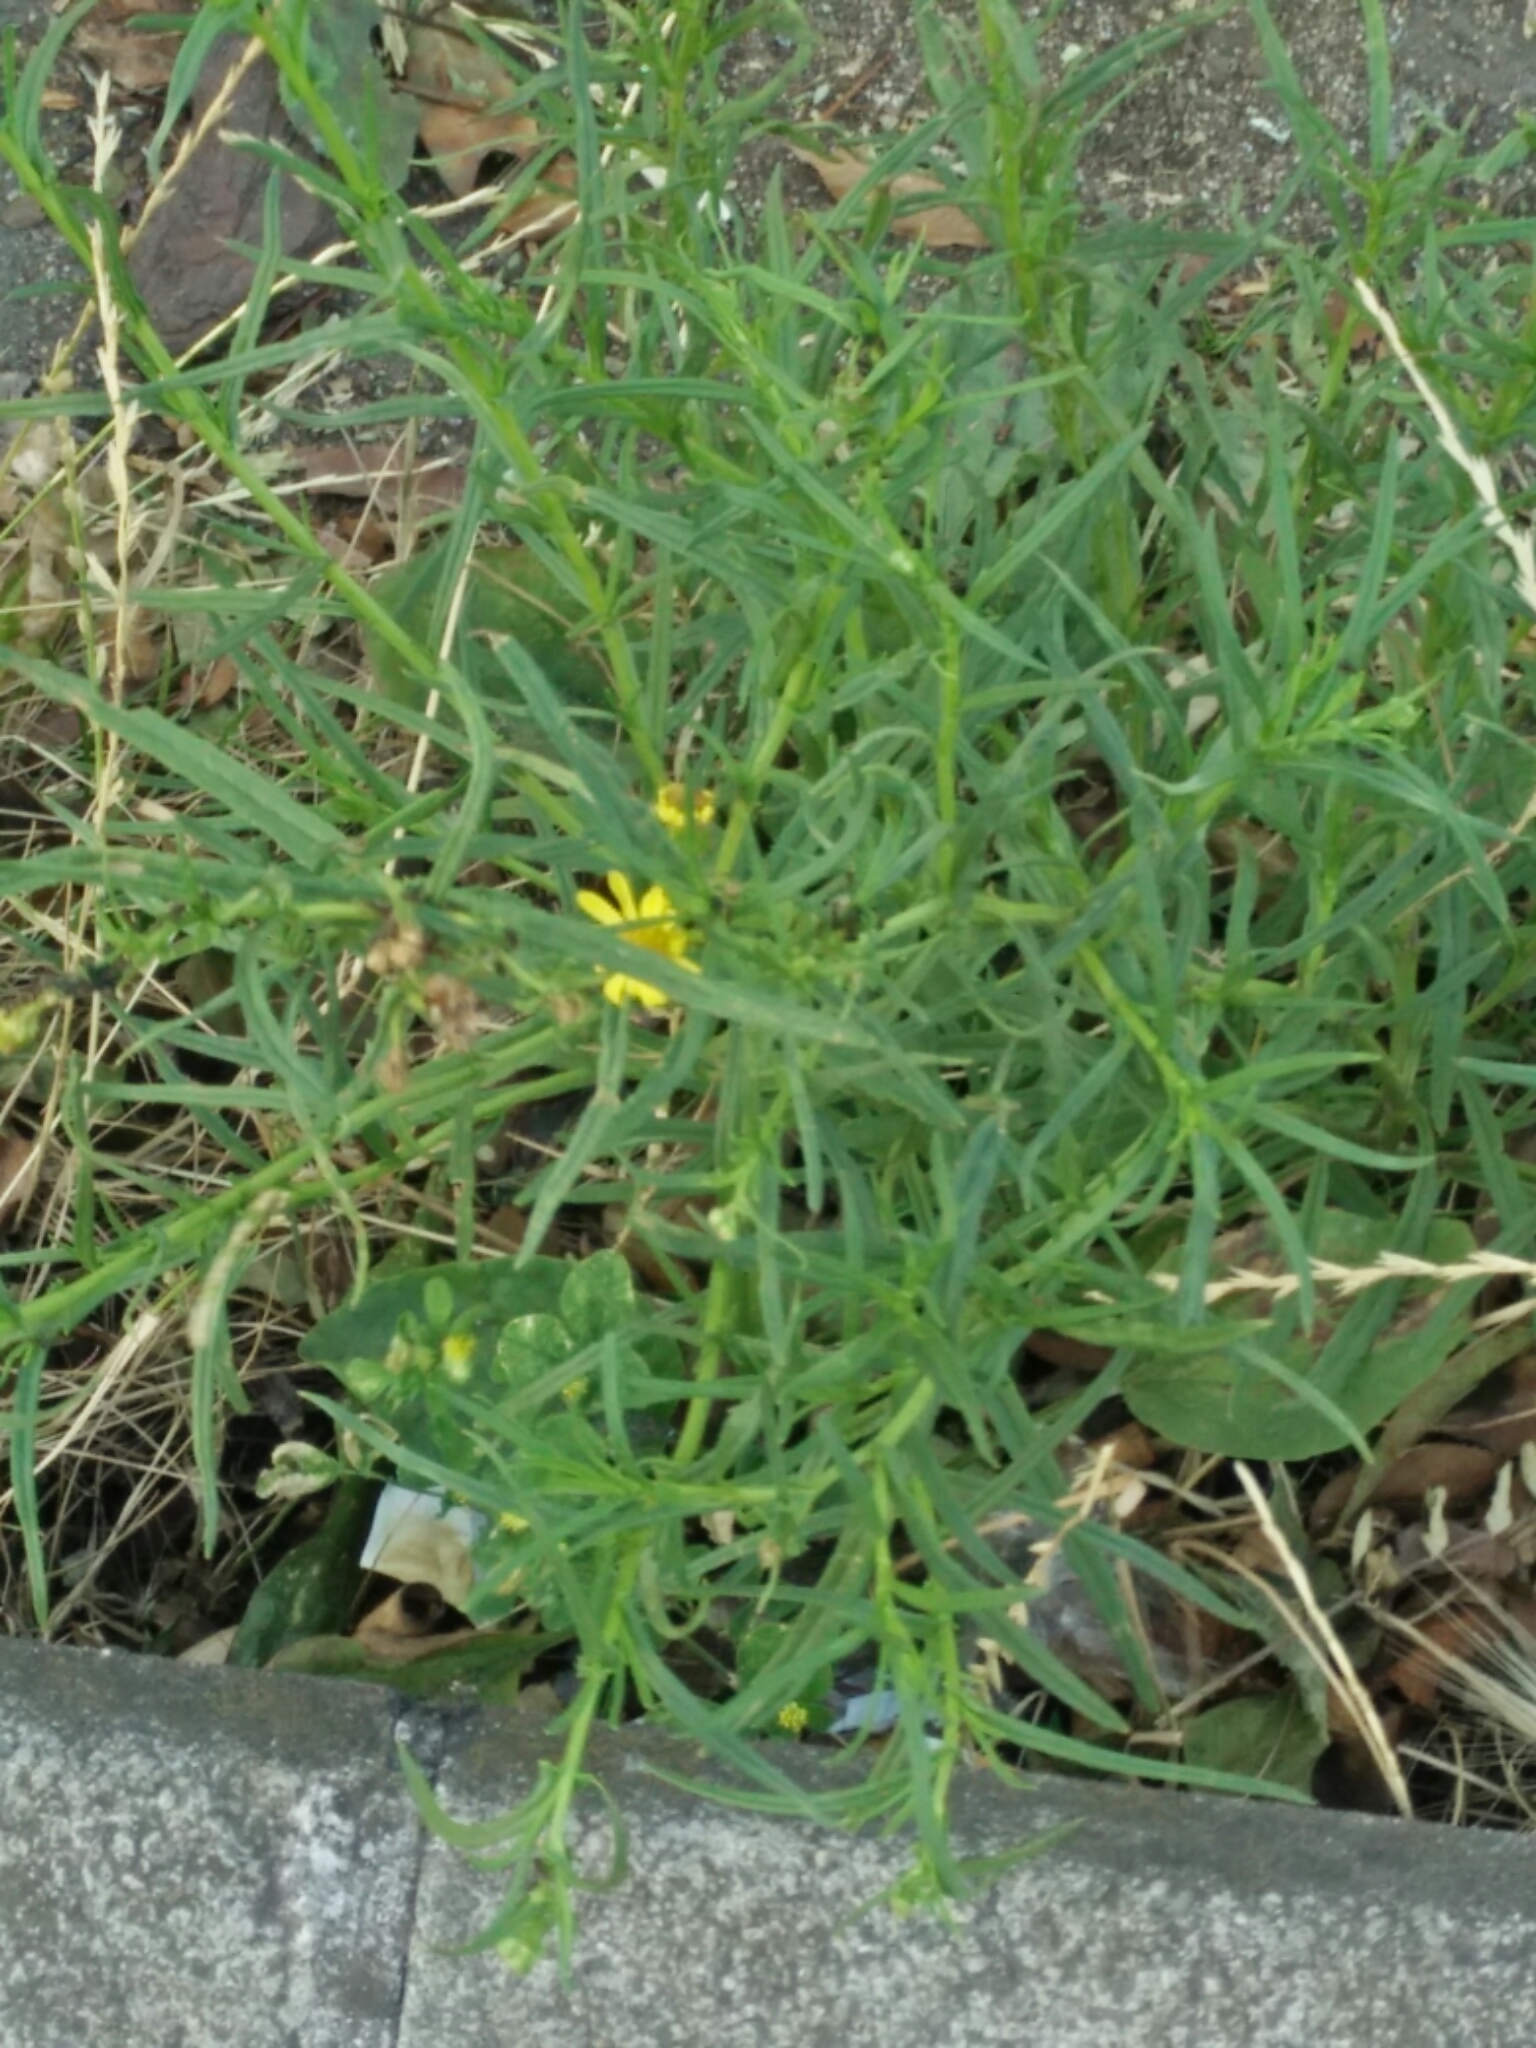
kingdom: Plantae
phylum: Tracheophyta
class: Magnoliopsida
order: Asterales
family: Asteraceae
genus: Senecio
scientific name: Senecio inaequidens
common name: Narrow-leaved ragwort
